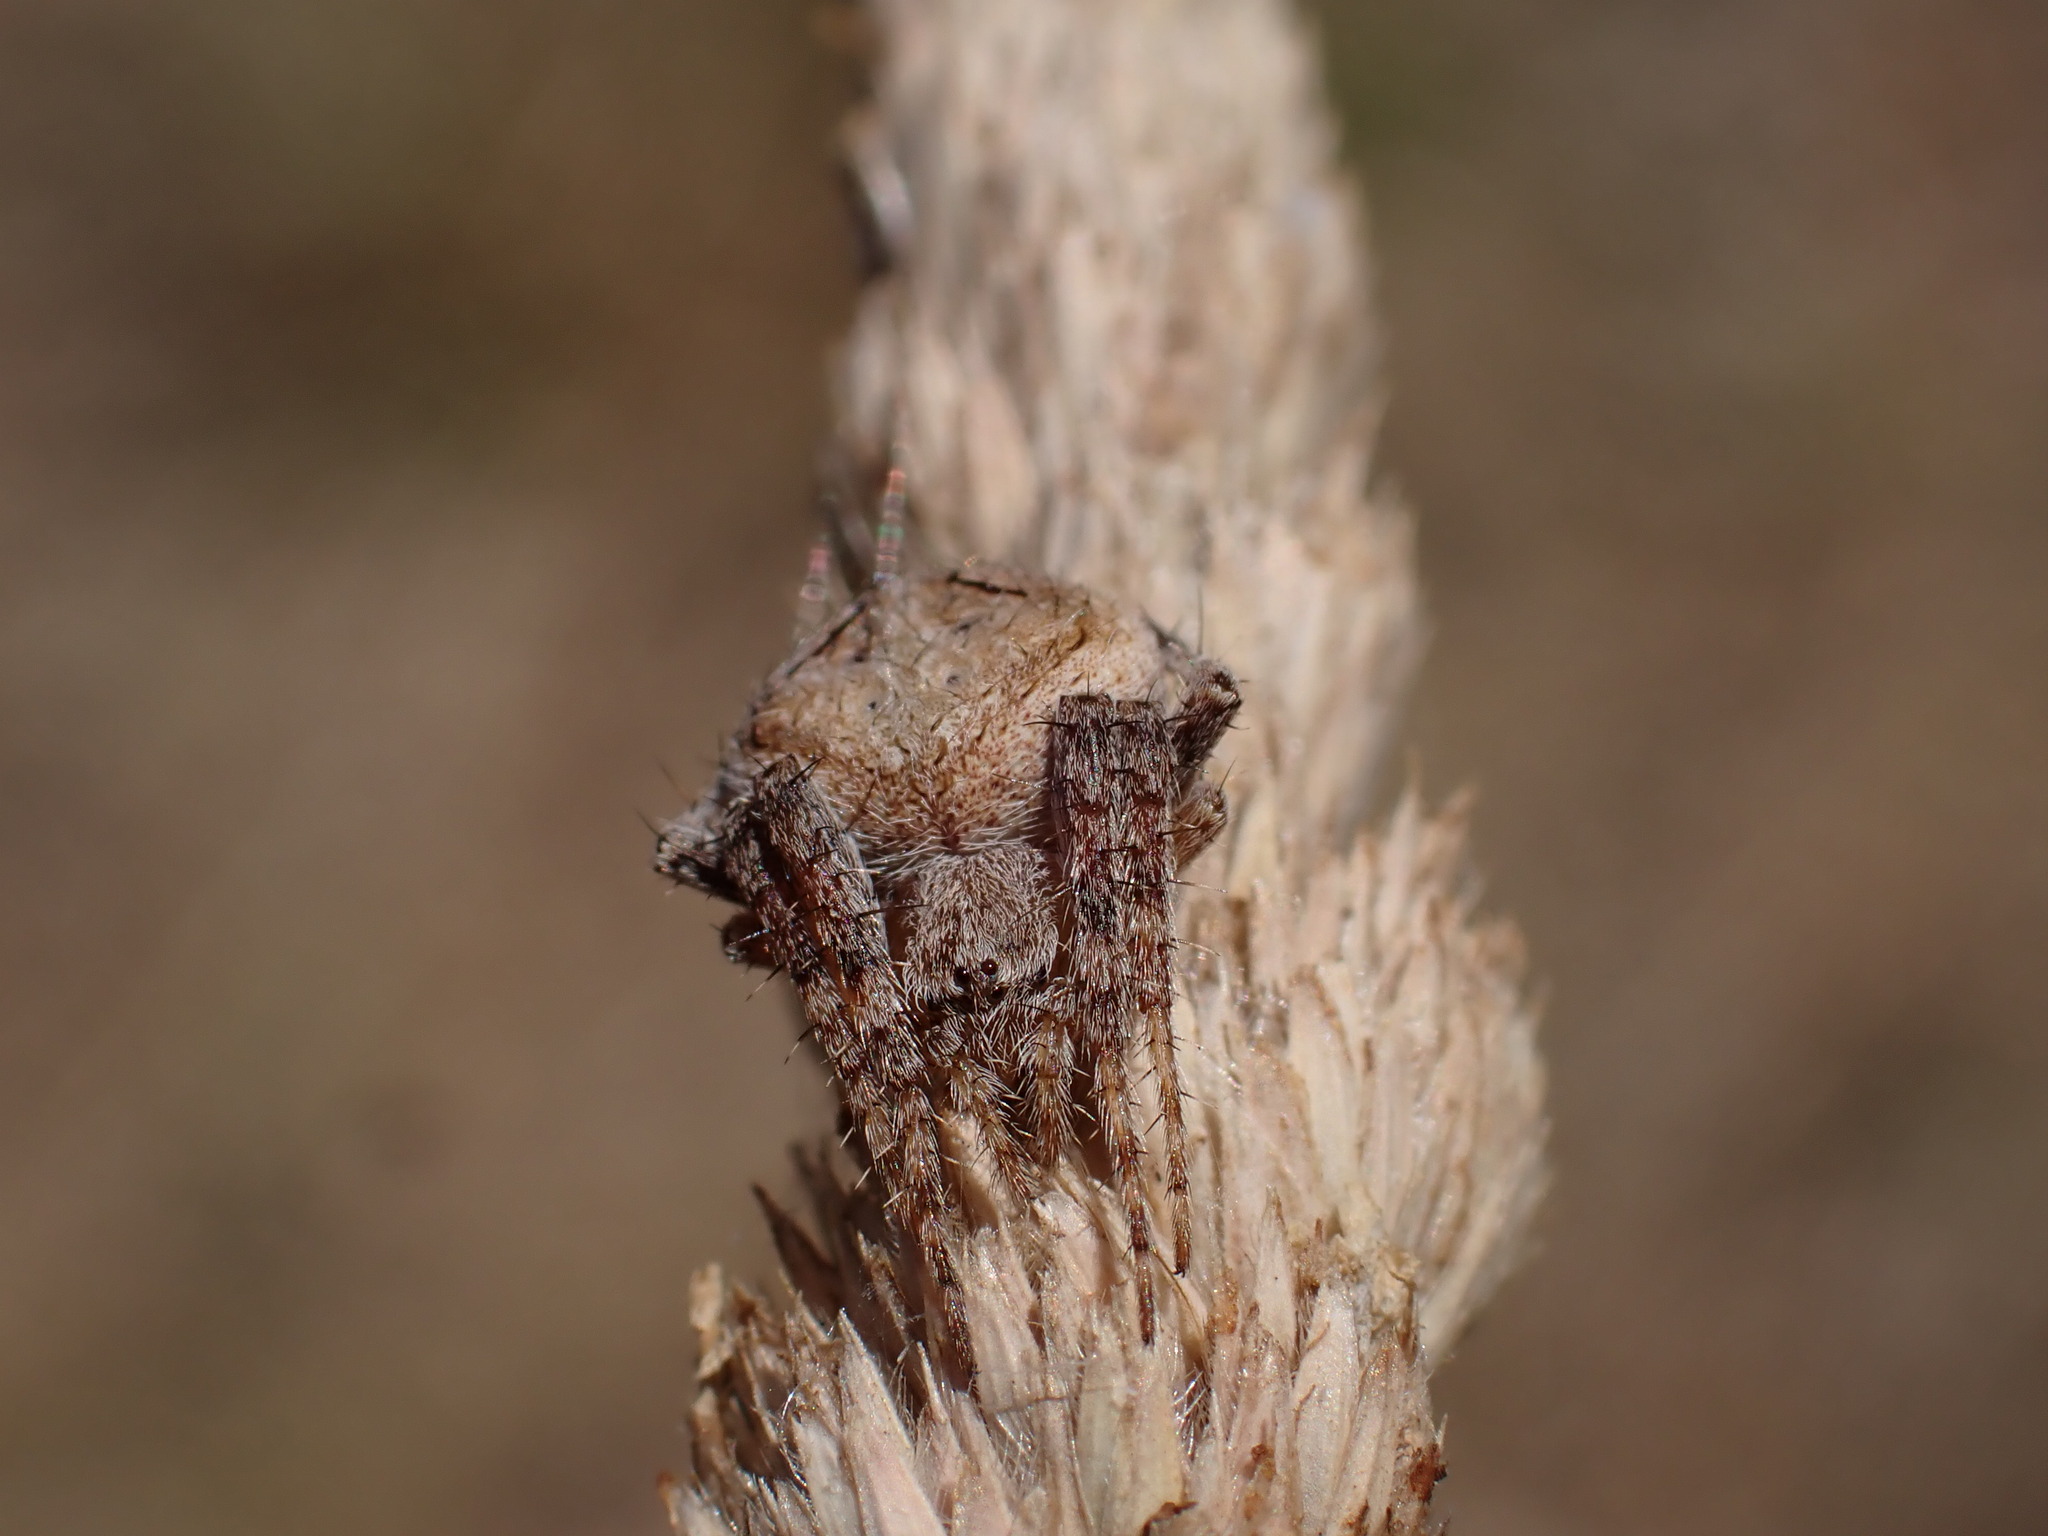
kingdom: Animalia
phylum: Arthropoda
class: Arachnida
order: Araneae
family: Araneidae
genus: Neoscona
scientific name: Neoscona subfusca
